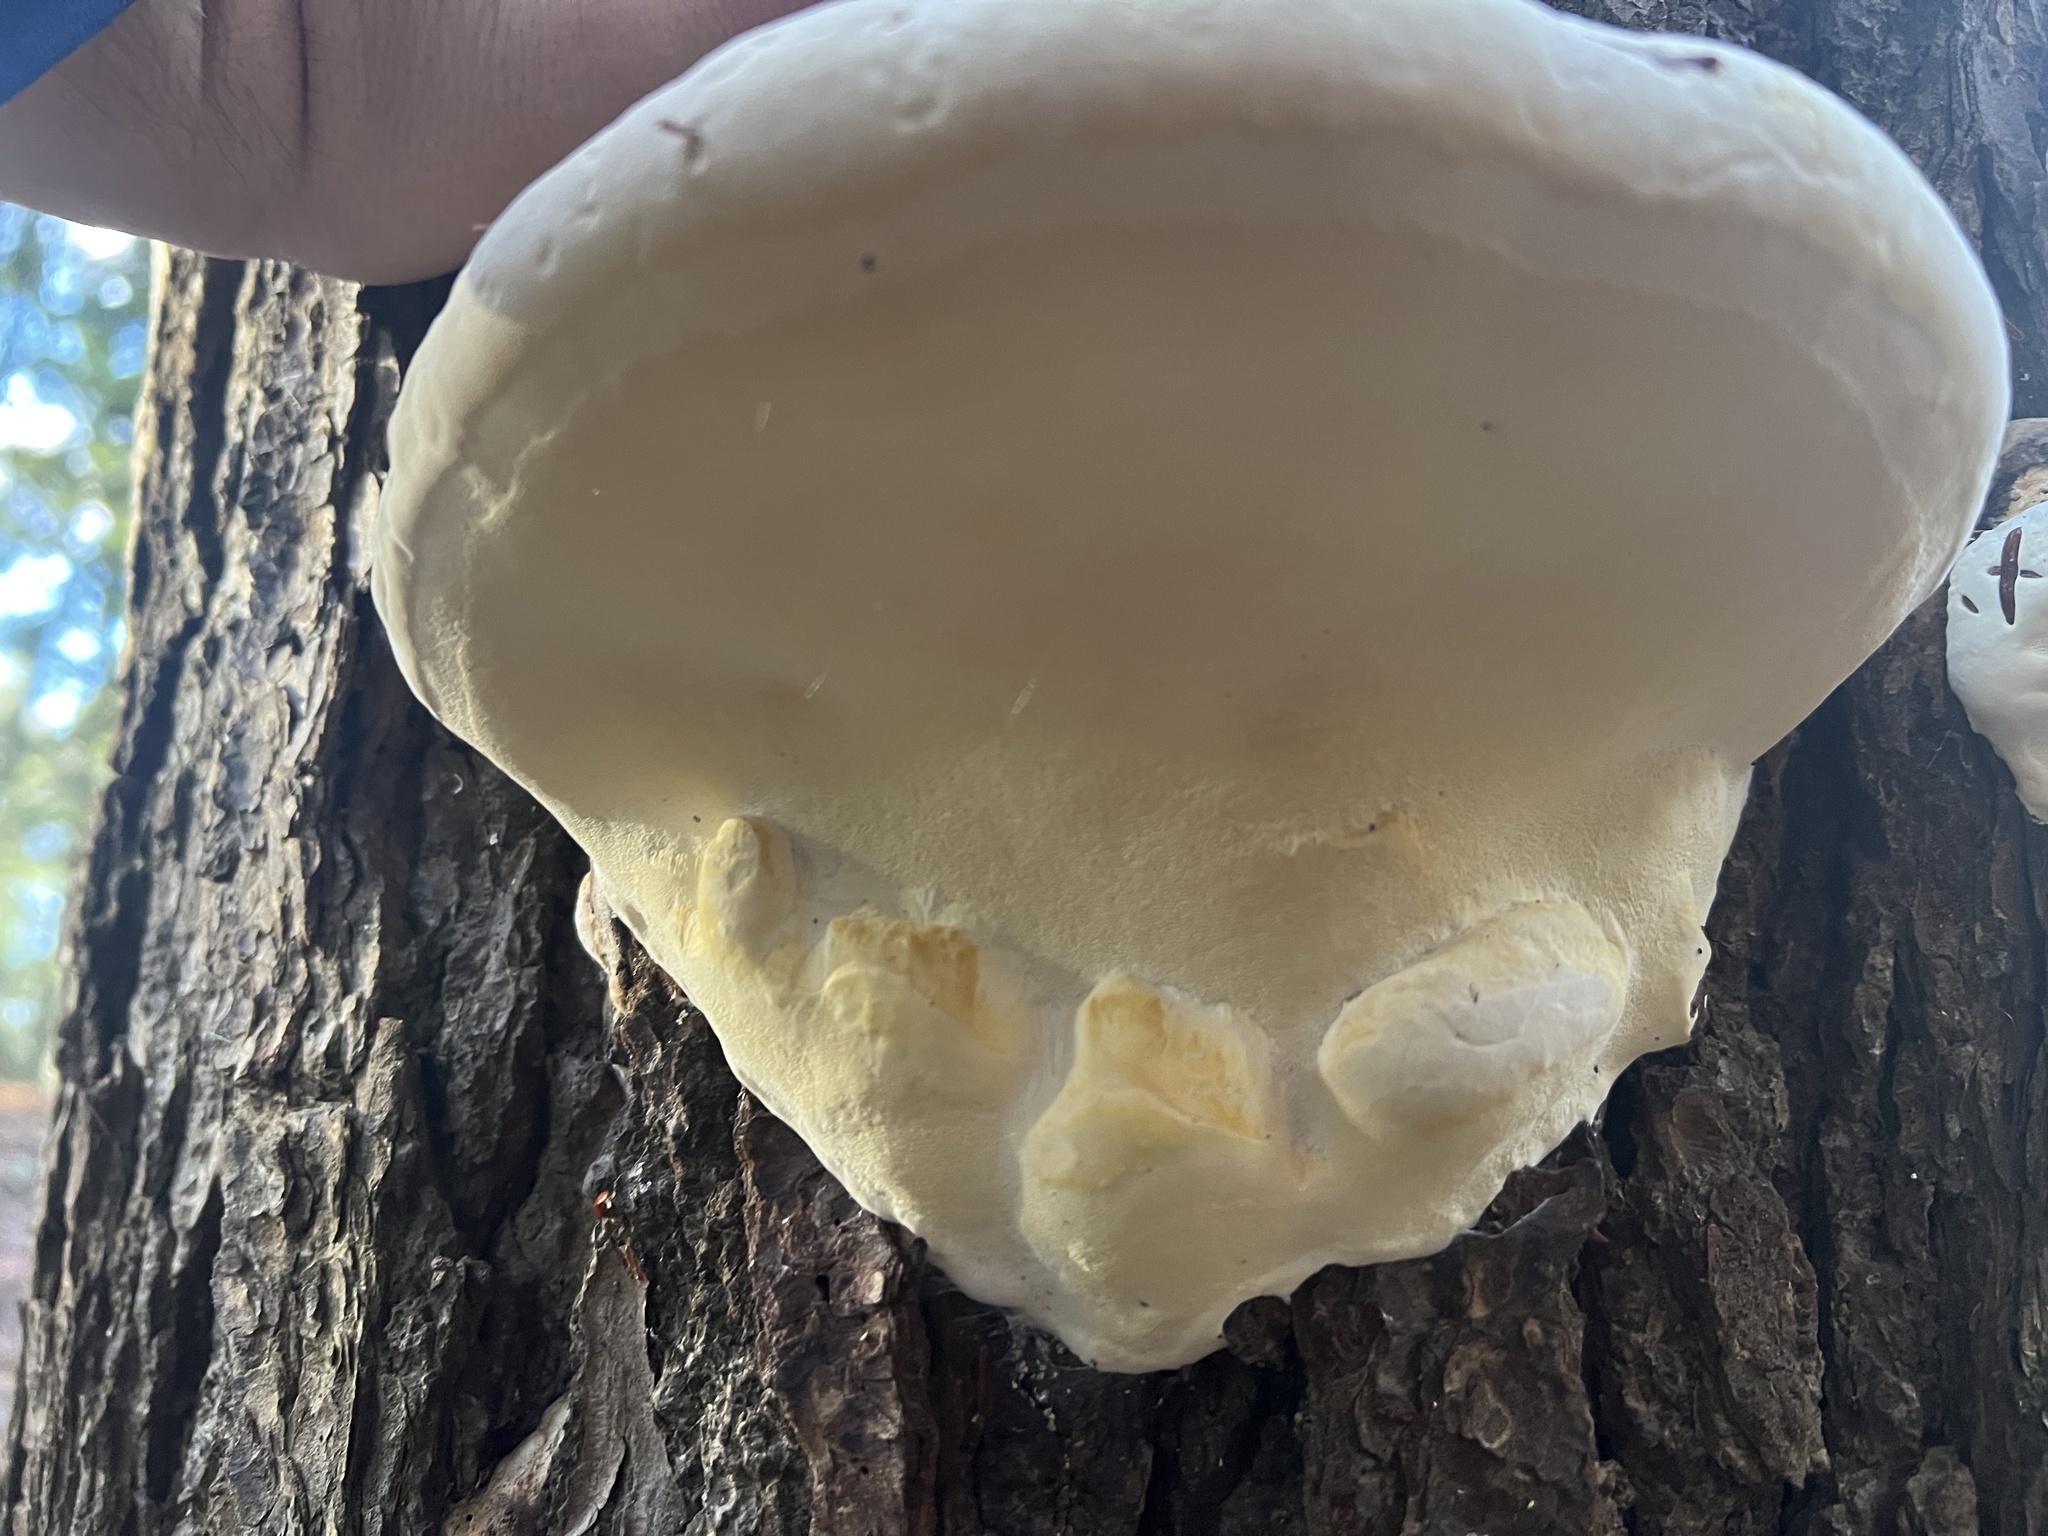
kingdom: Fungi
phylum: Basidiomycota
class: Agaricomycetes
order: Polyporales
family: Fomitopsidaceae
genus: Fomitopsis
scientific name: Fomitopsis ochracea
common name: American brown fomitopsis
